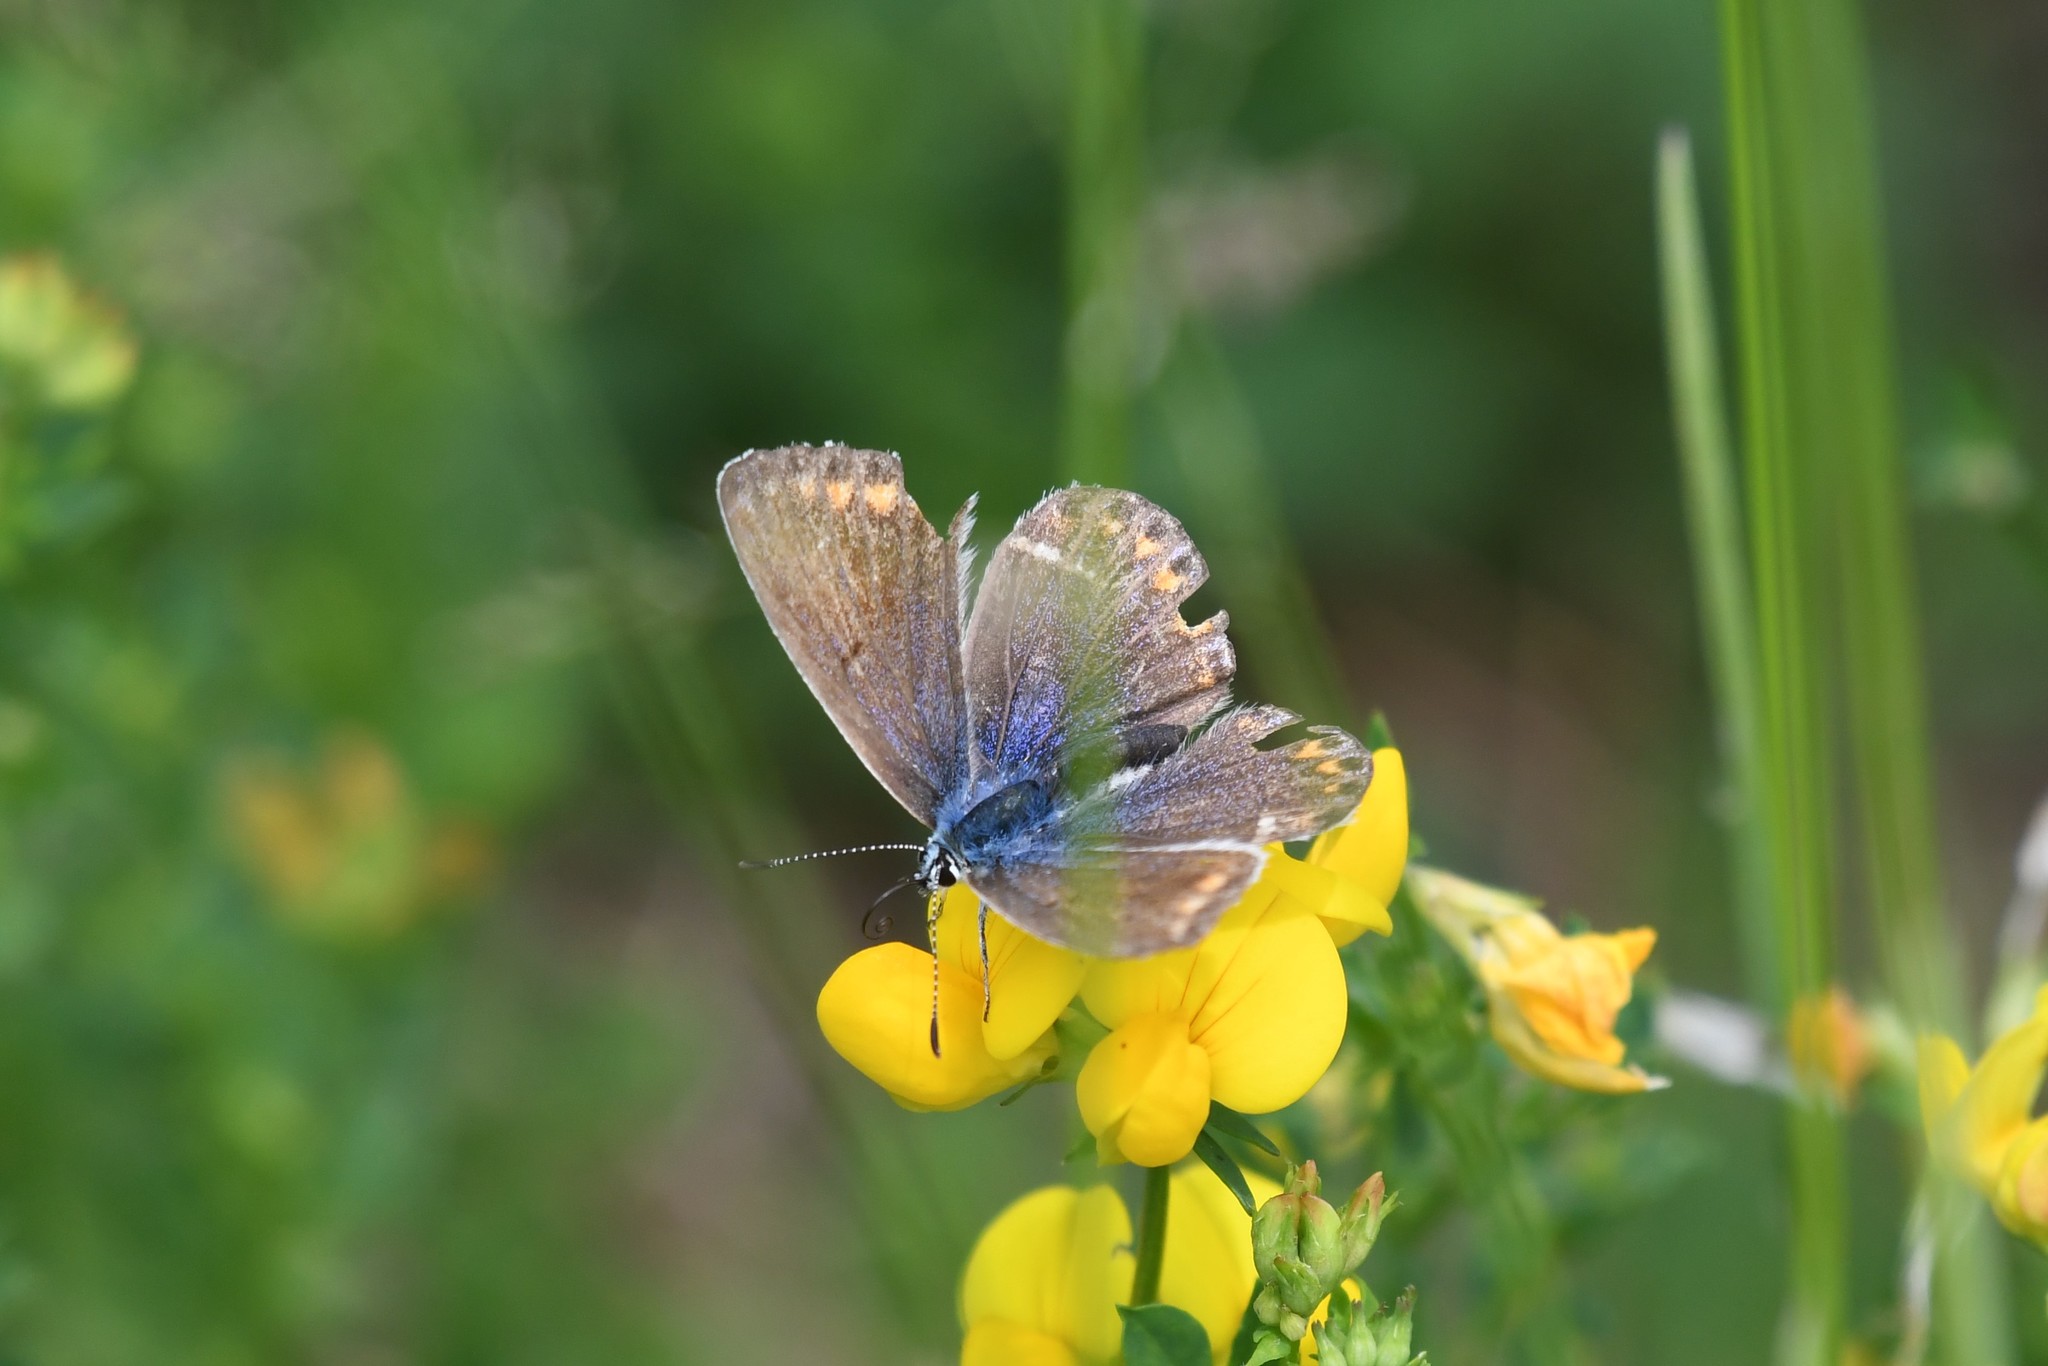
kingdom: Animalia
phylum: Arthropoda
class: Insecta
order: Lepidoptera
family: Lycaenidae
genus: Polyommatus
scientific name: Polyommatus icarus
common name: Common blue
